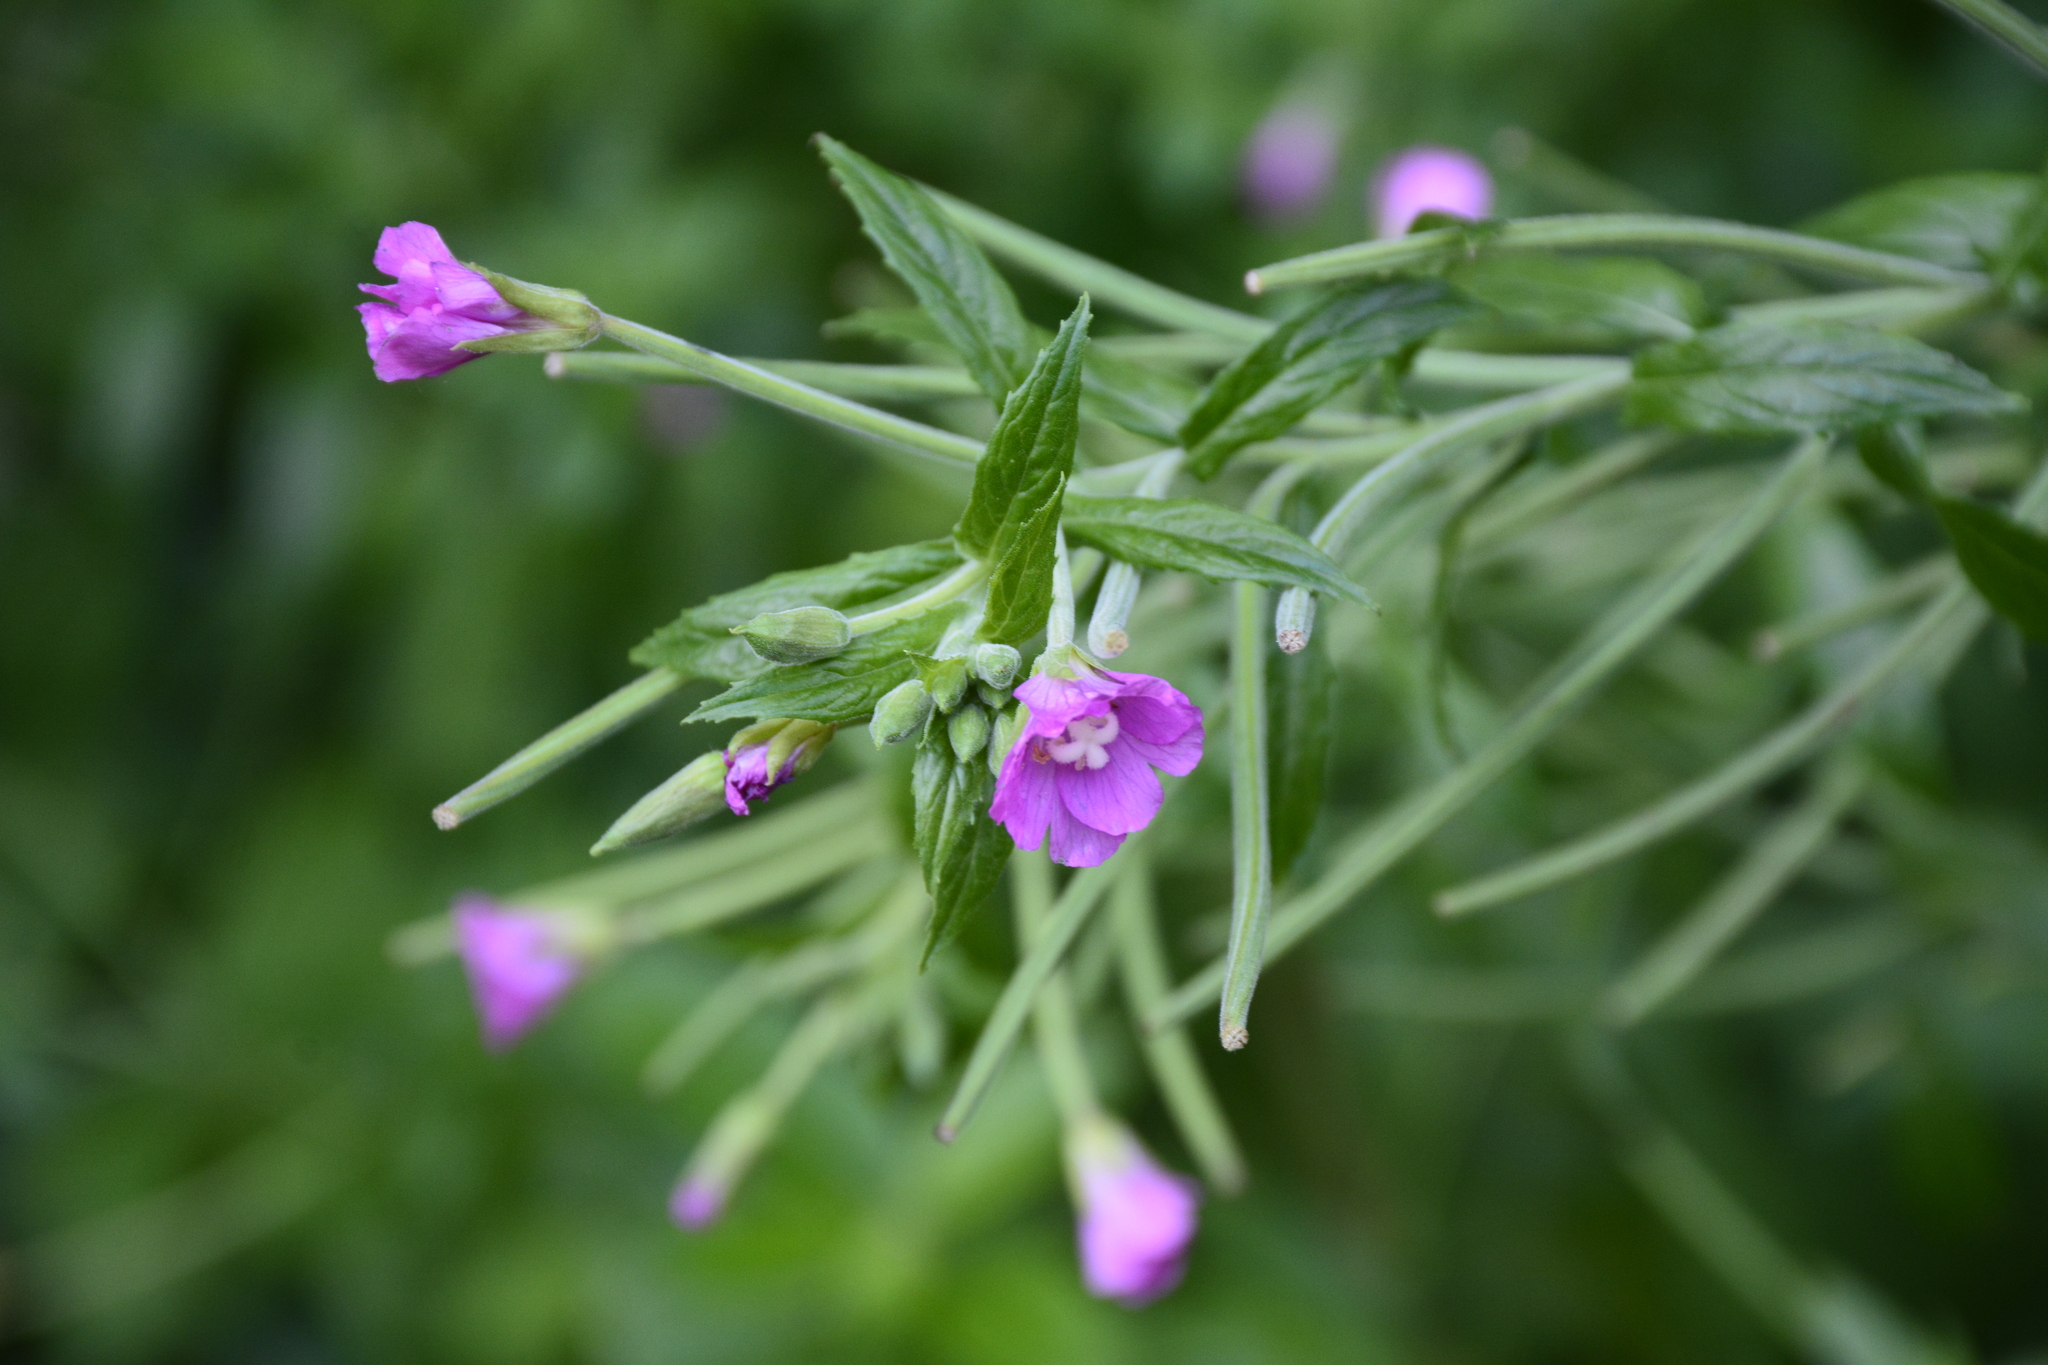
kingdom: Plantae
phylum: Tracheophyta
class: Magnoliopsida
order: Myrtales
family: Onagraceae
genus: Epilobium
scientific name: Epilobium hirsutum
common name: Great willowherb
